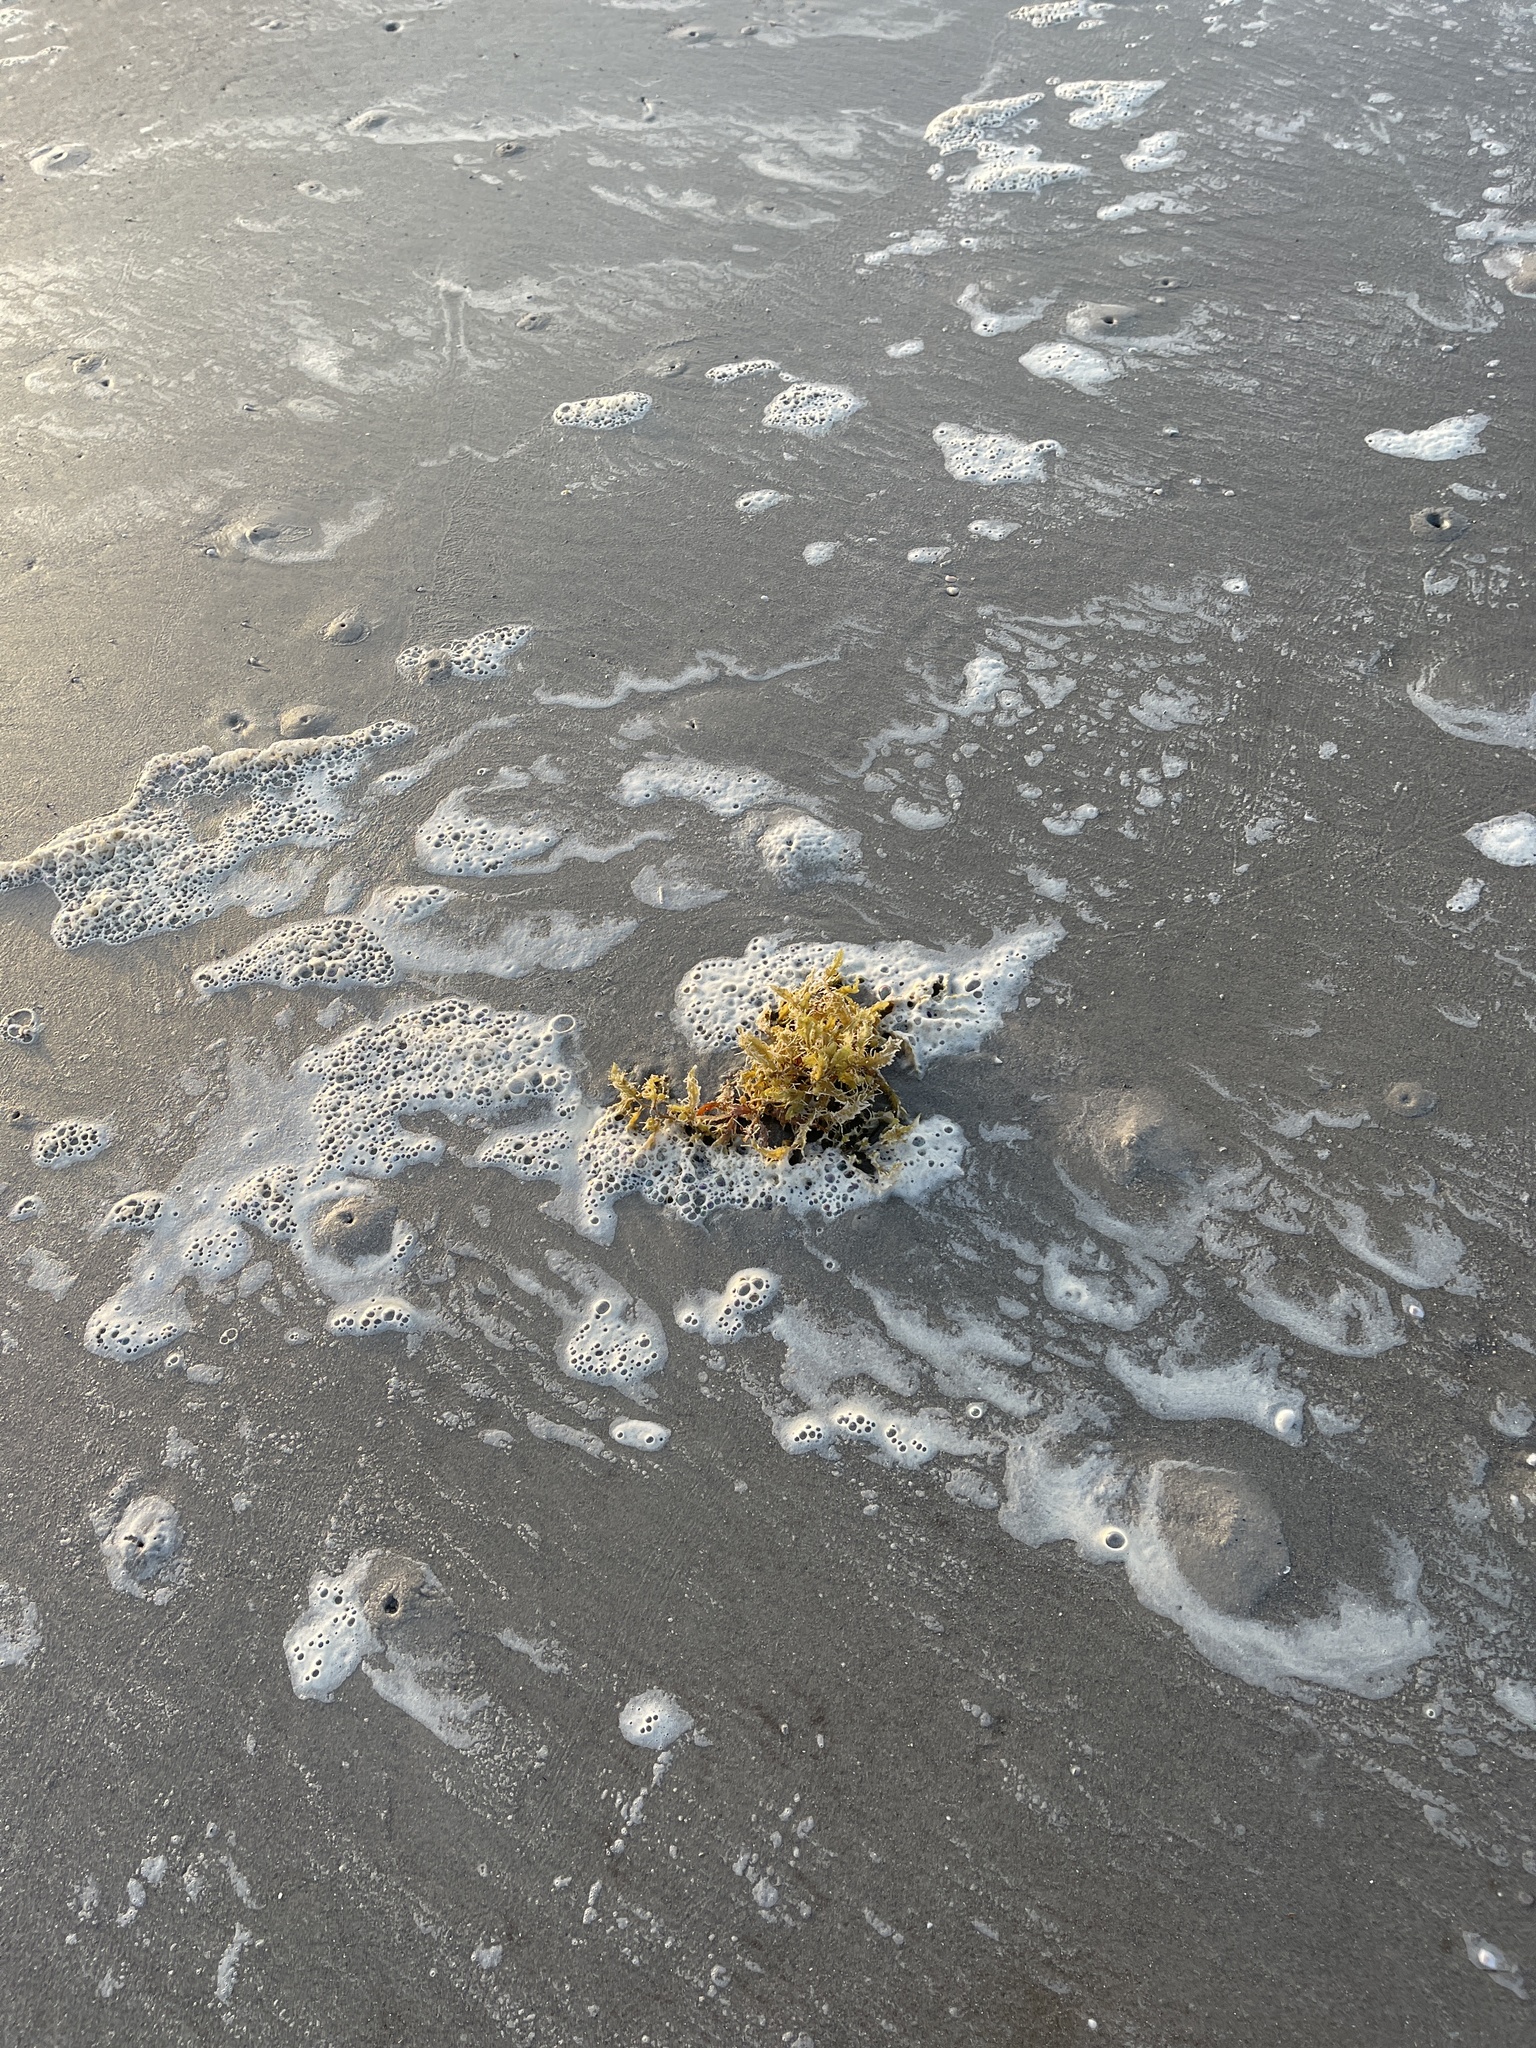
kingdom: Chromista
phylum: Ochrophyta
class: Phaeophyceae
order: Fucales
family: Sargassaceae
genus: Sargassum
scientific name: Sargassum fluitans
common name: Sargassum seaweed
